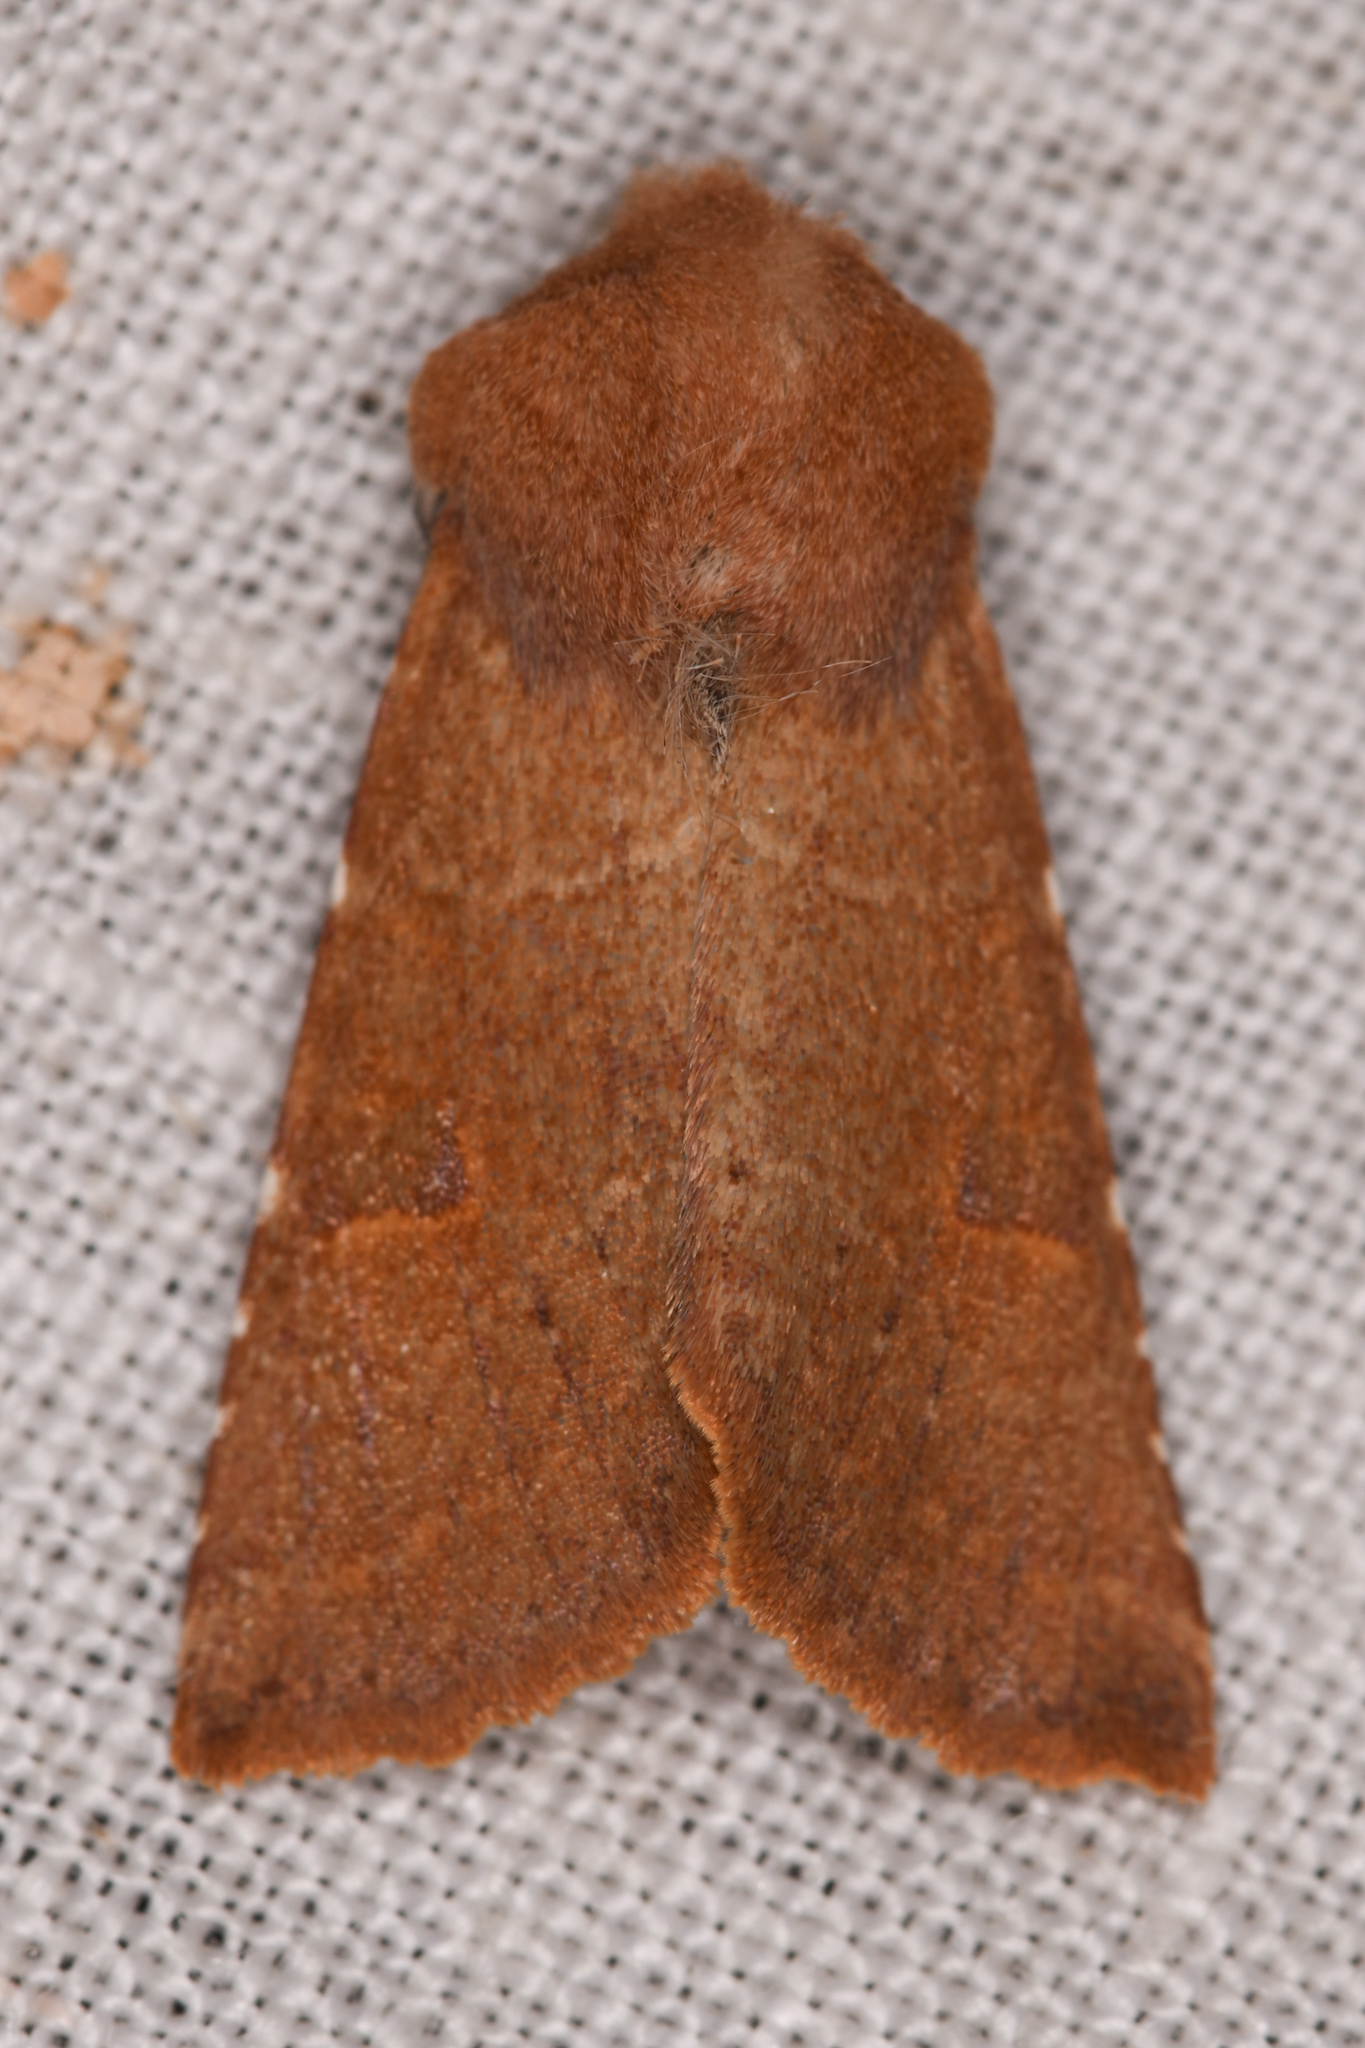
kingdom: Animalia
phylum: Arthropoda
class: Insecta
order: Lepidoptera
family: Noctuidae
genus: Orthosia
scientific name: Orthosia ferrigera
